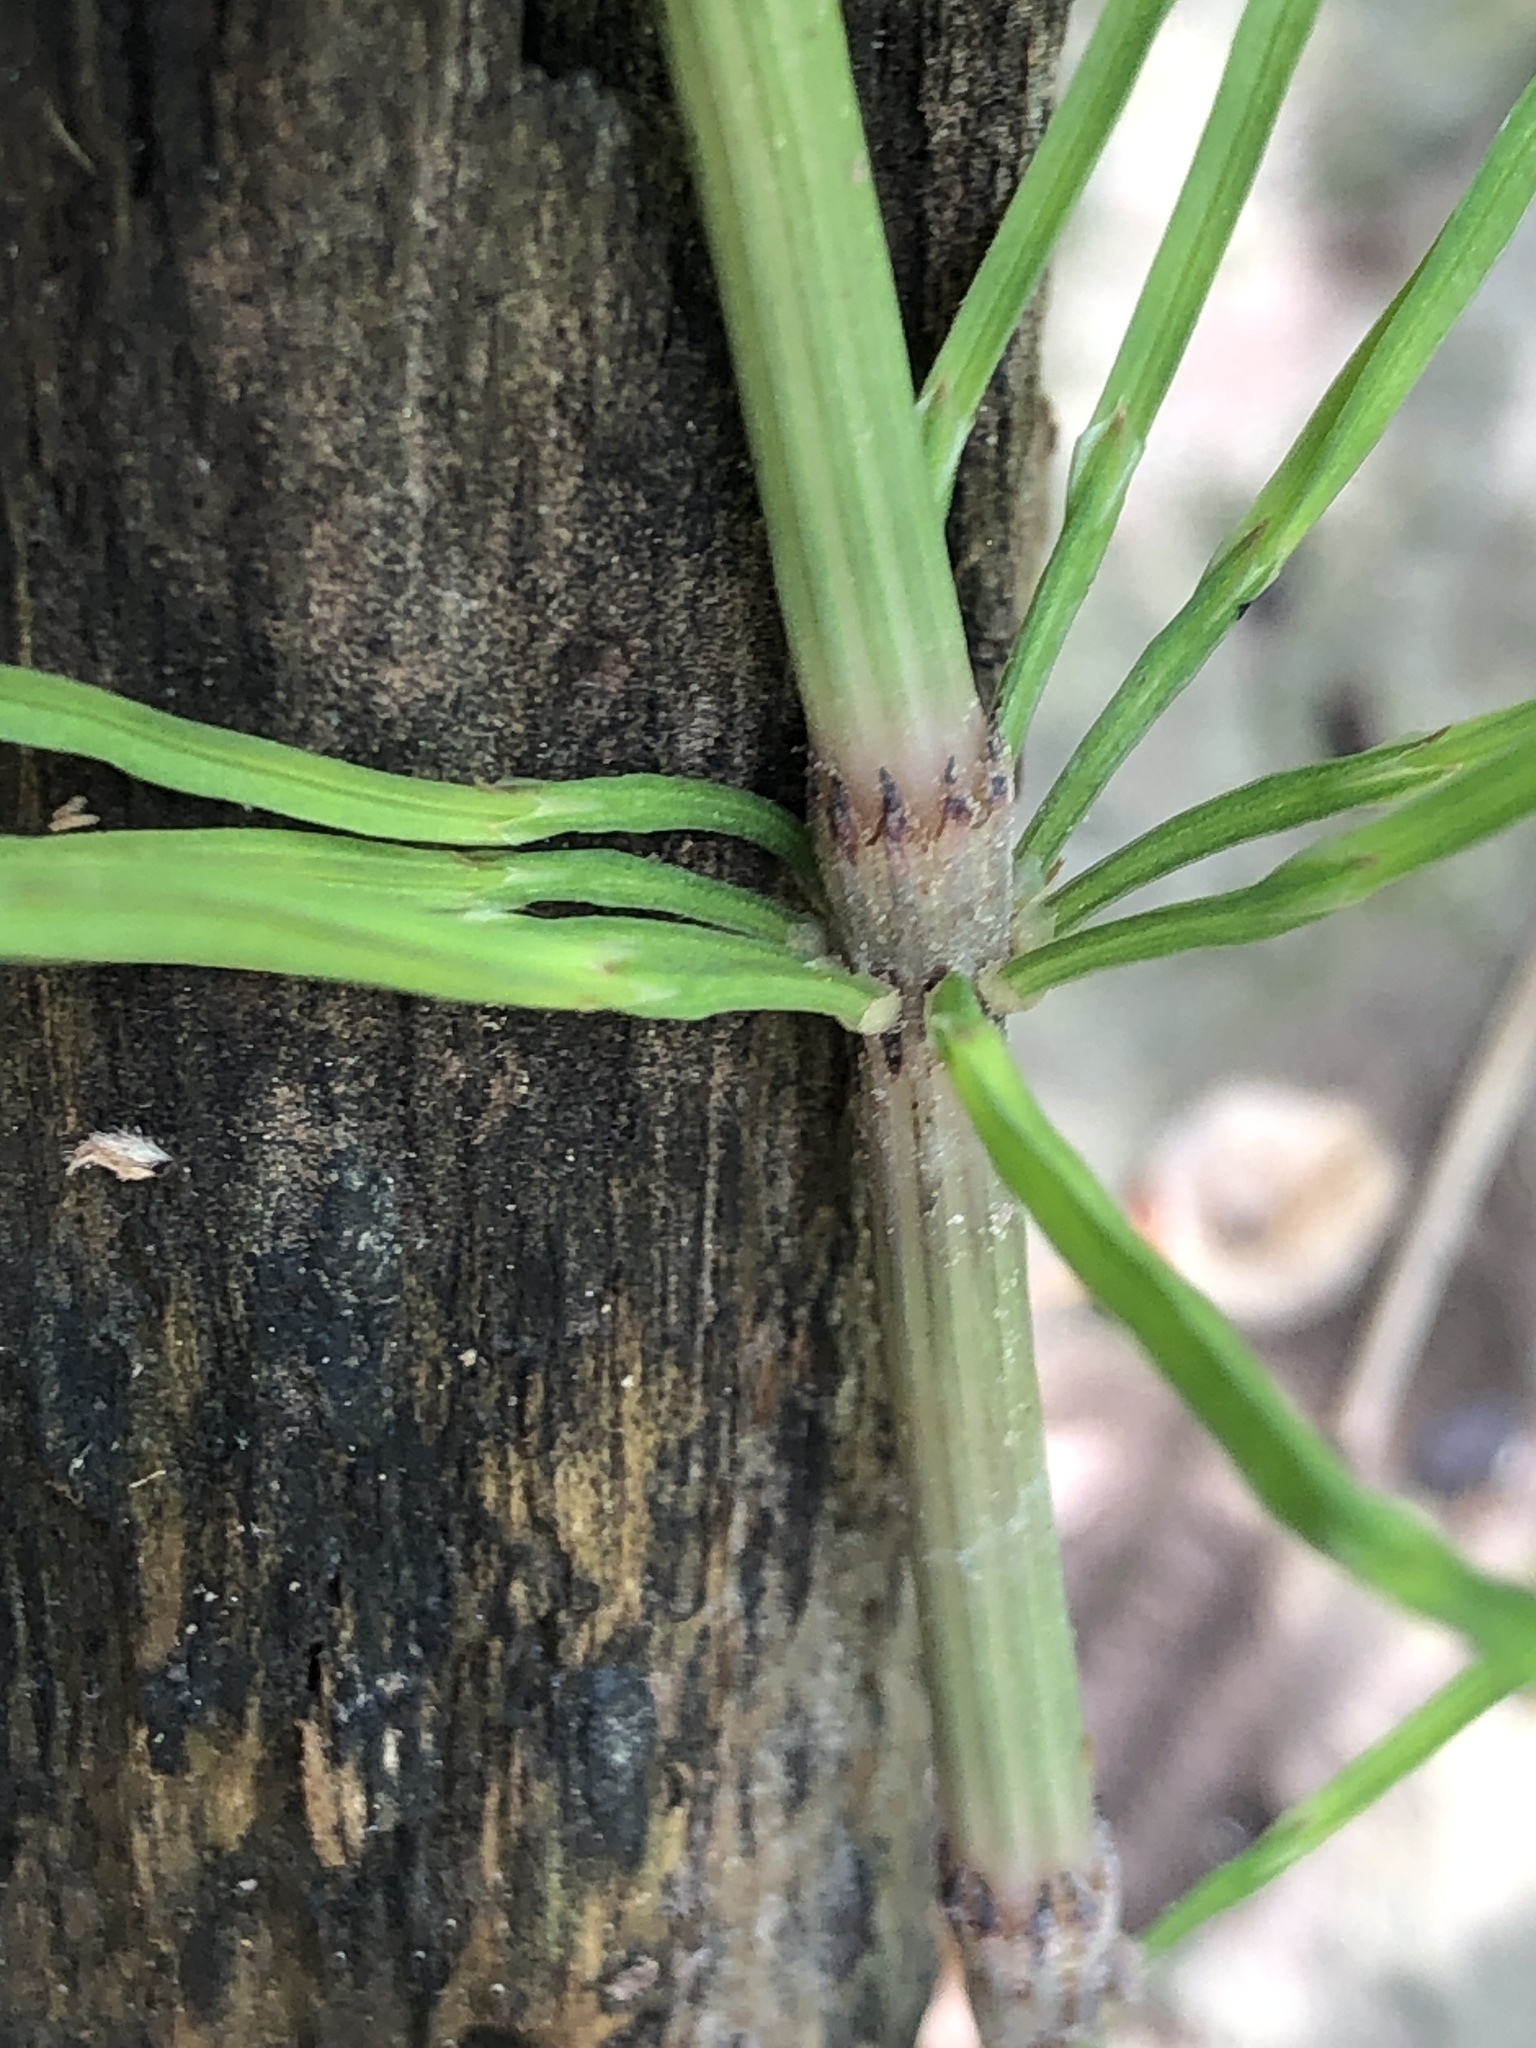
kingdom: Plantae
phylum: Tracheophyta
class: Polypodiopsida
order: Equisetales
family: Equisetaceae
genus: Equisetum
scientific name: Equisetum arvense
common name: Field horsetail
